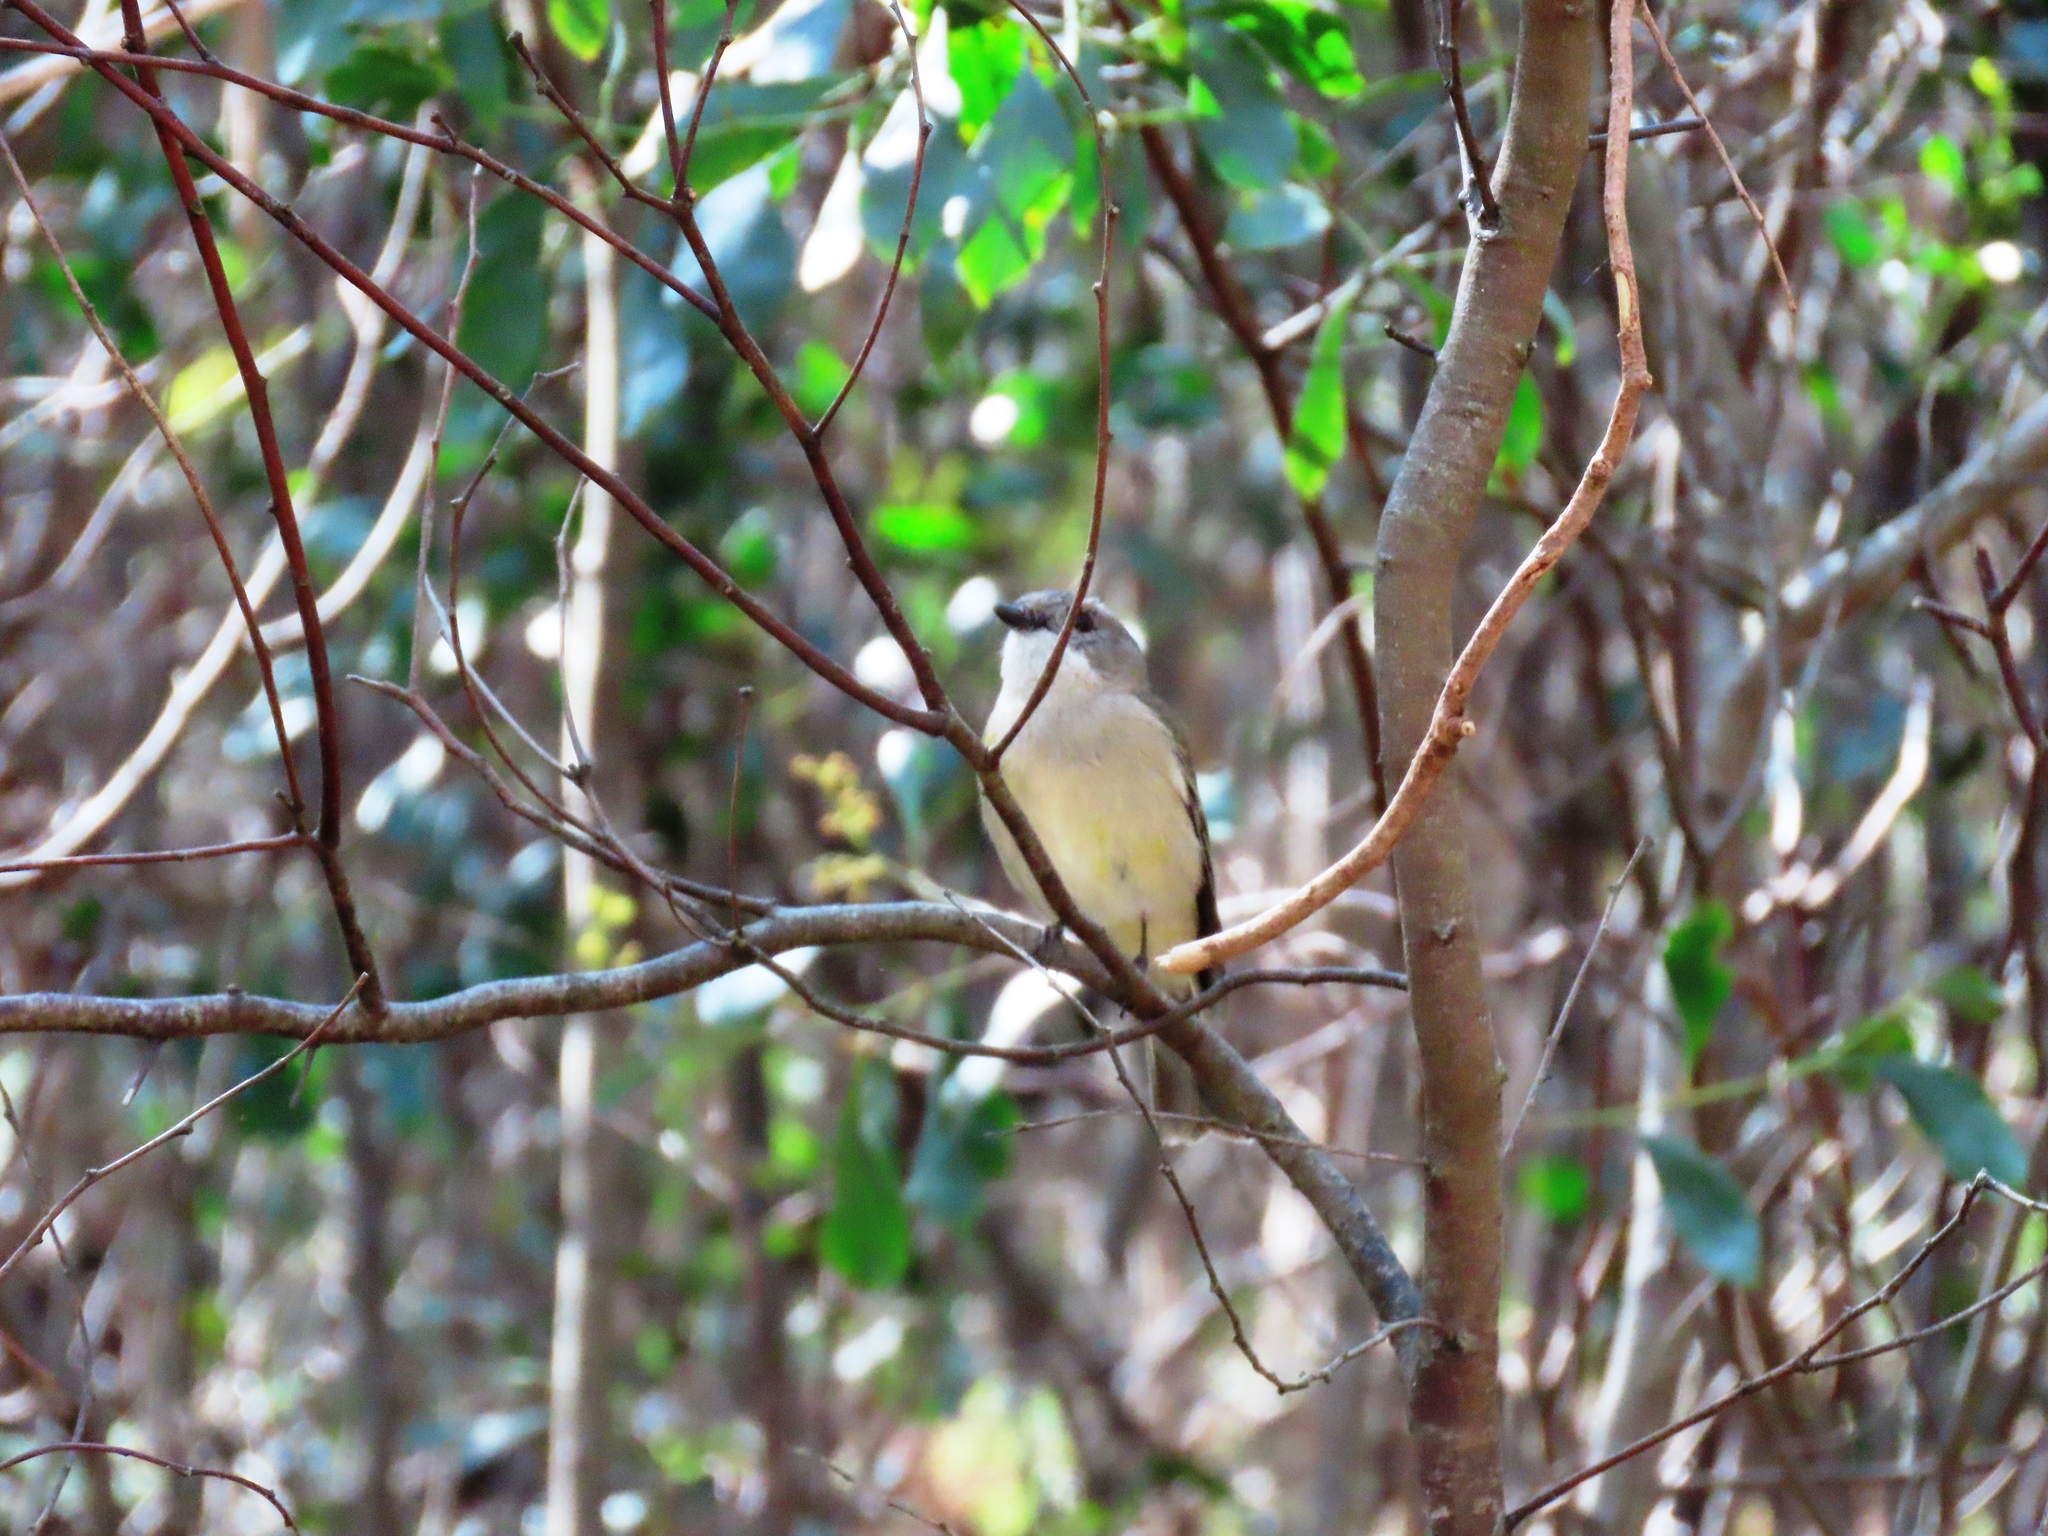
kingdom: Animalia
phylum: Chordata
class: Aves
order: Passeriformes
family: Pachycephalidae
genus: Pachycephala
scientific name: Pachycephala pectoralis
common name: Australian golden whistler
